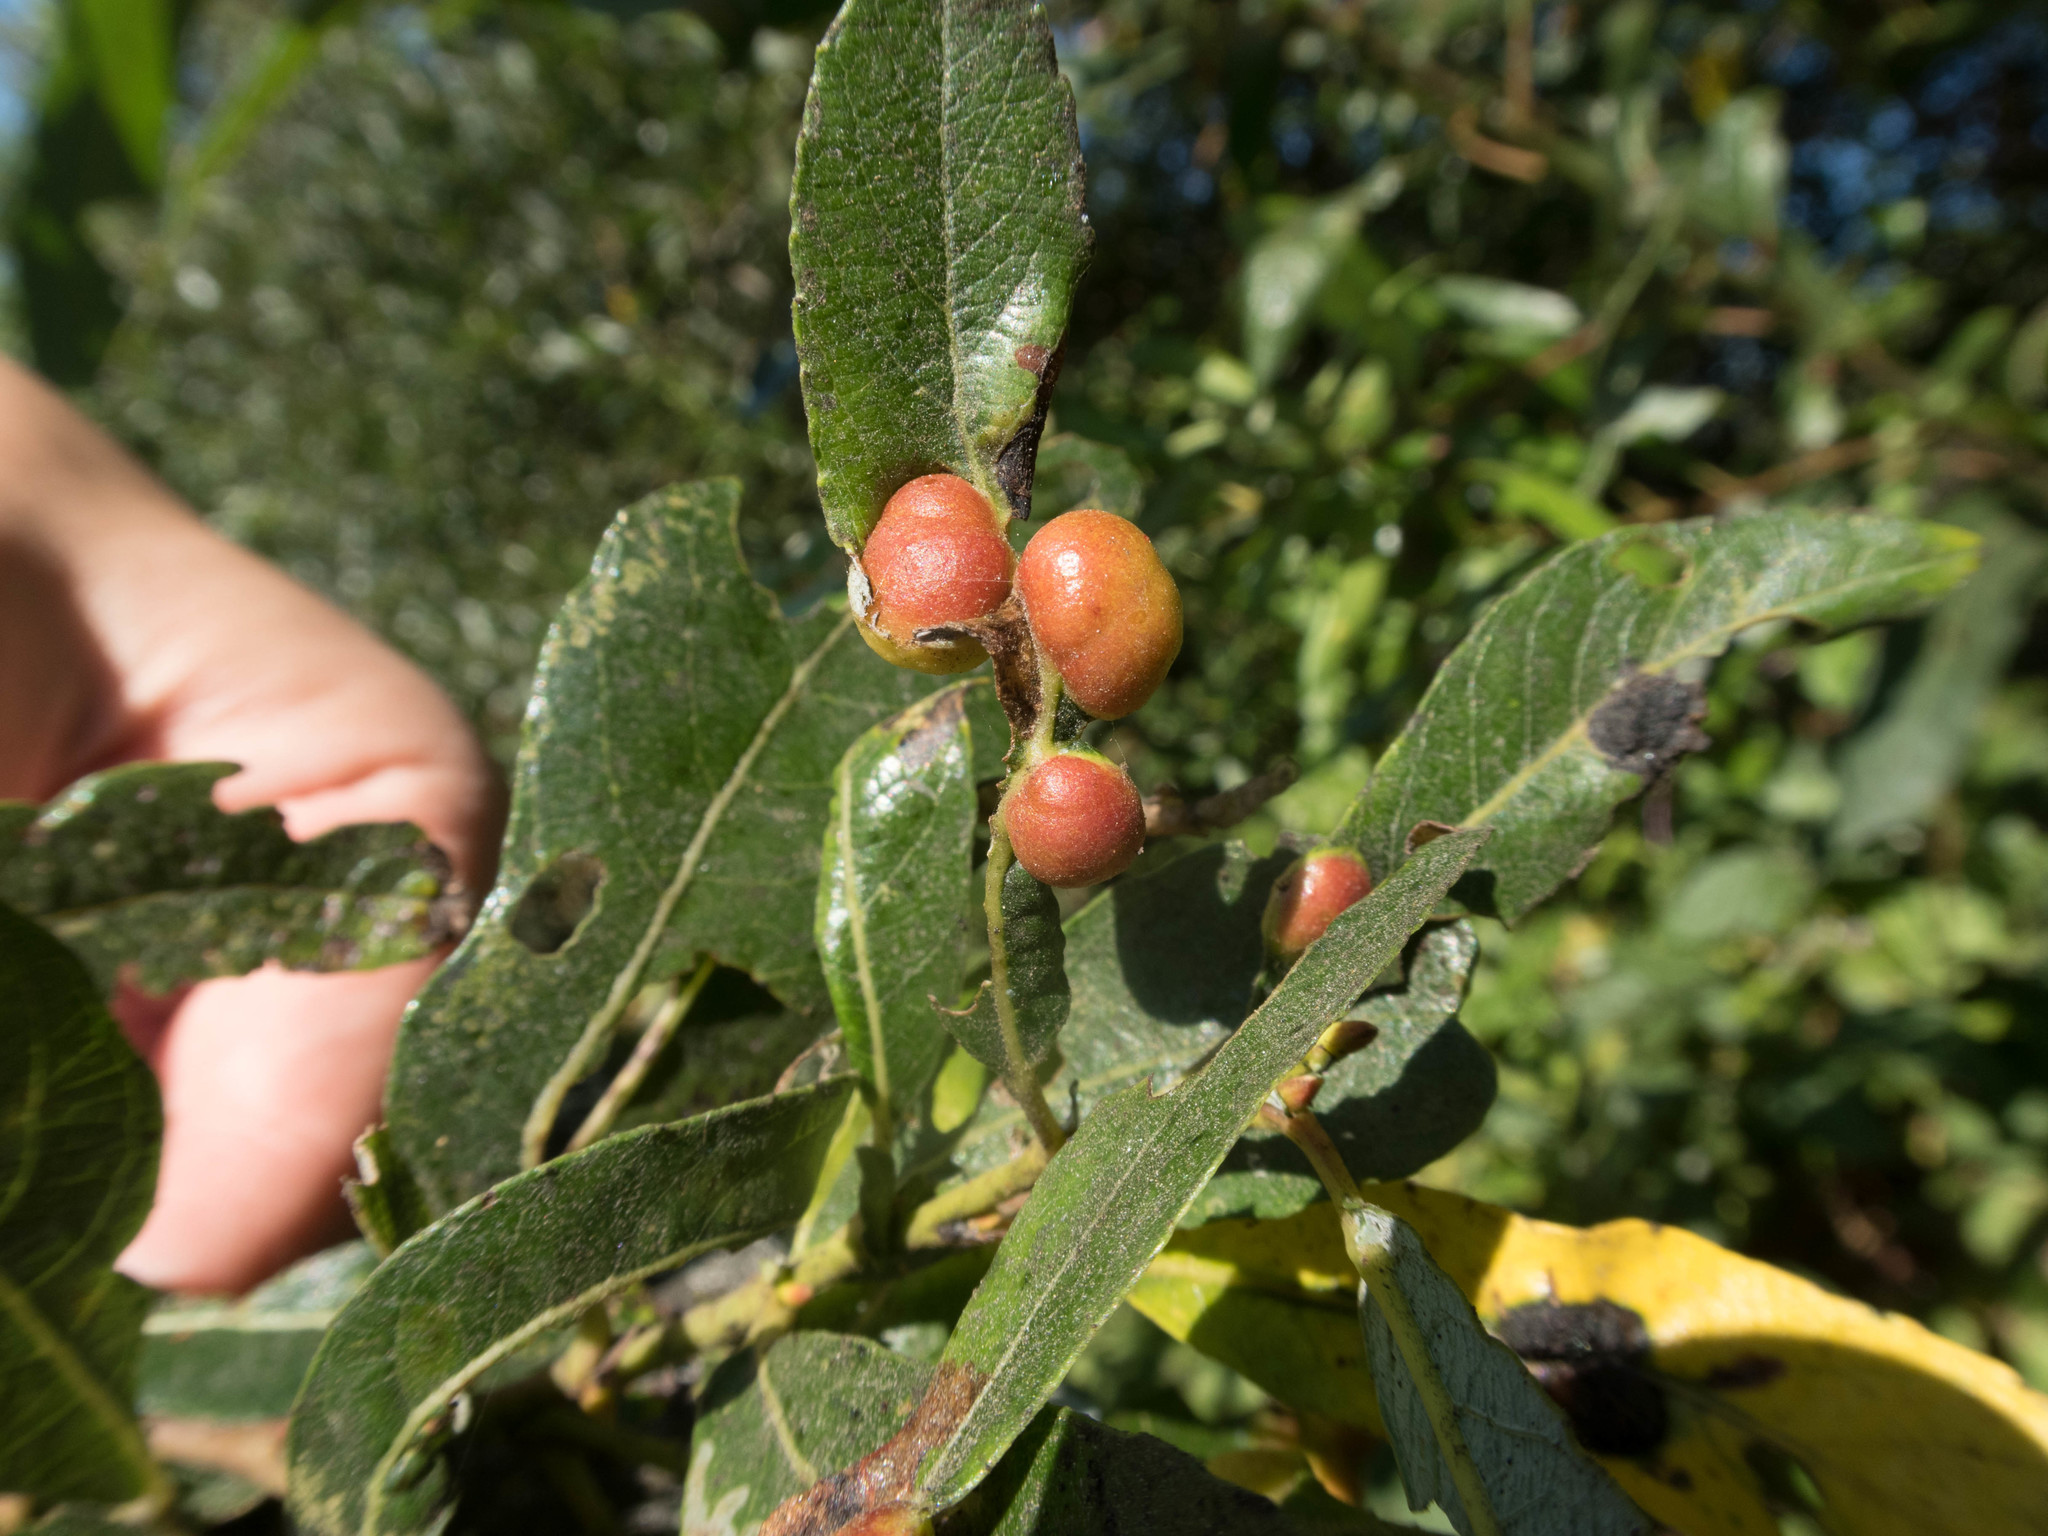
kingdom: Animalia
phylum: Arthropoda
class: Insecta
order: Hymenoptera
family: Tenthredinidae
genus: Euura
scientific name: Euura
